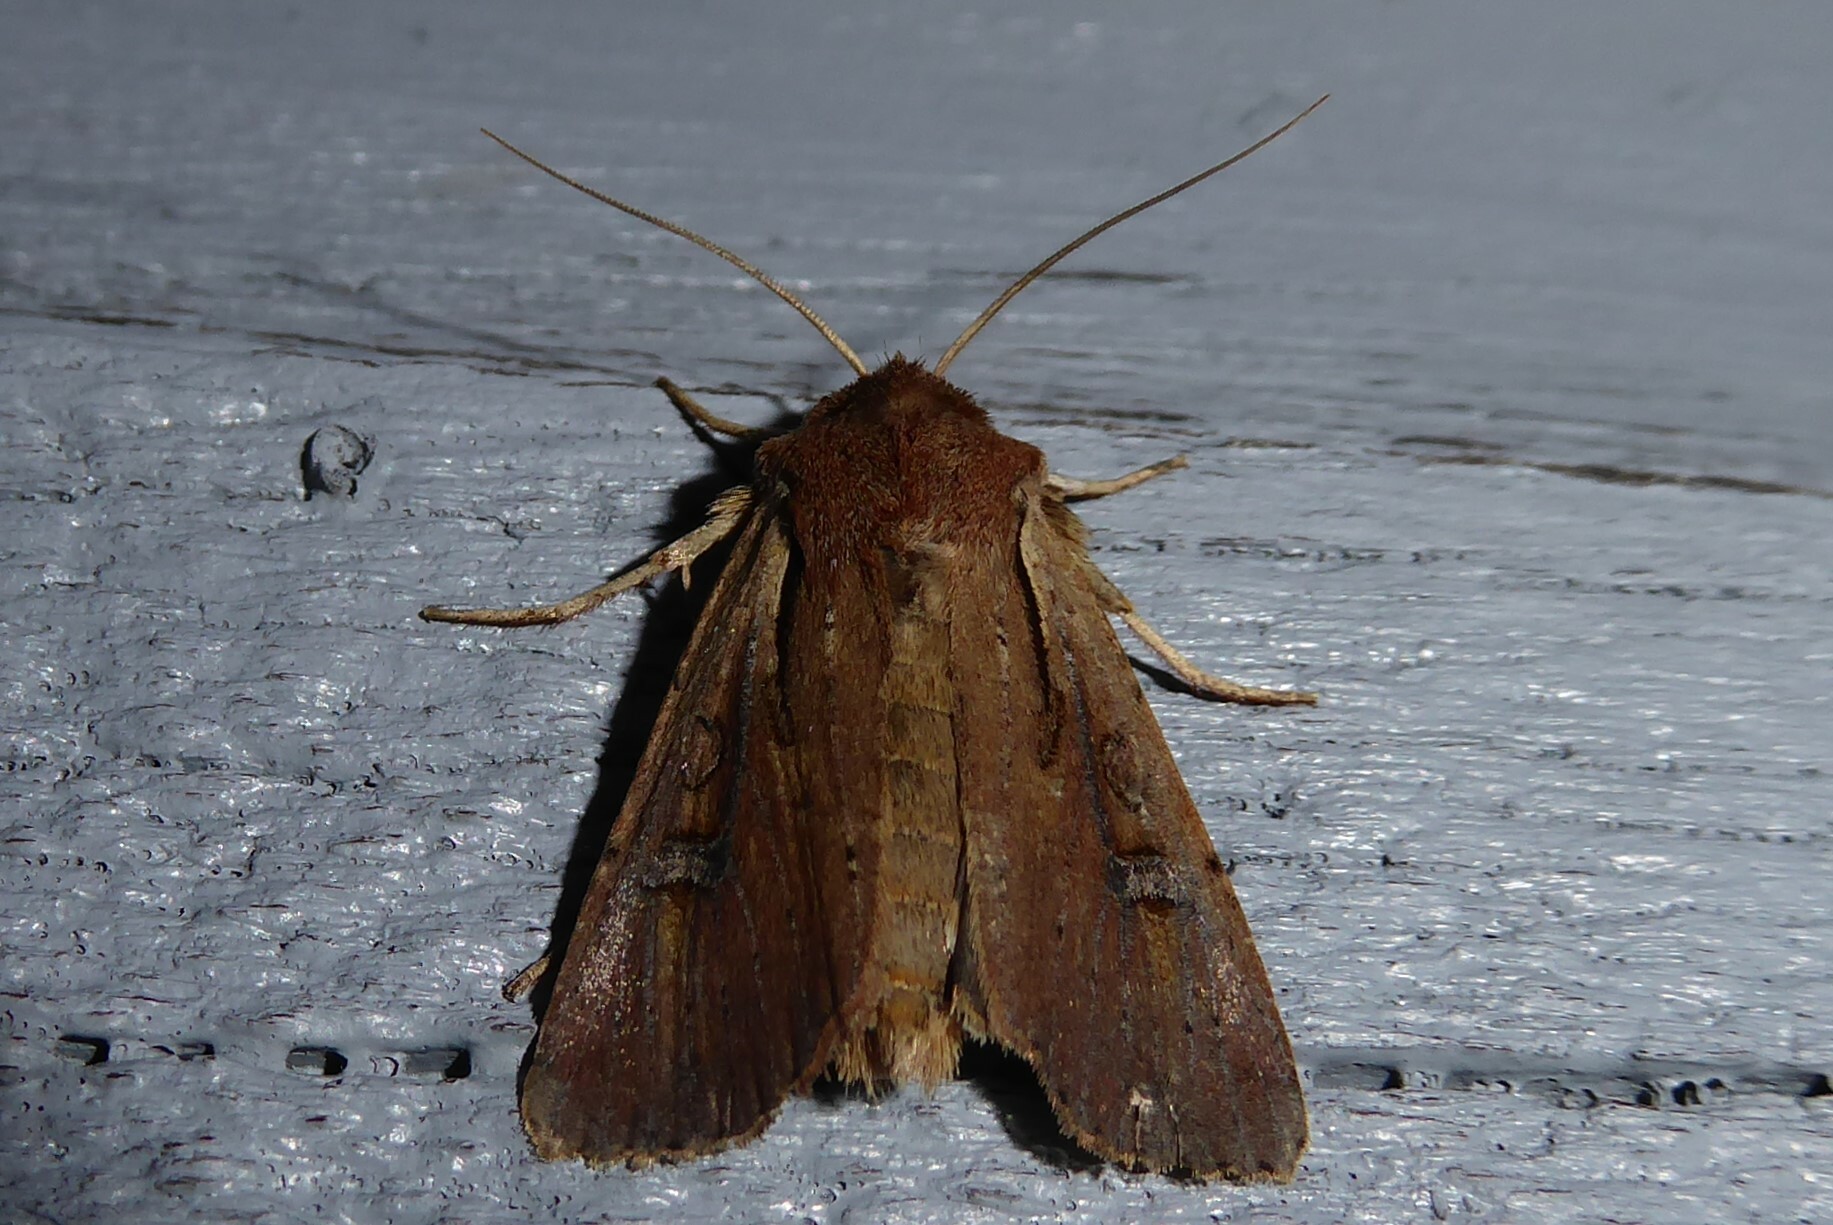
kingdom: Animalia
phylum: Arthropoda
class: Insecta
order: Lepidoptera
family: Noctuidae
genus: Ichneutica
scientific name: Ichneutica atristriga
